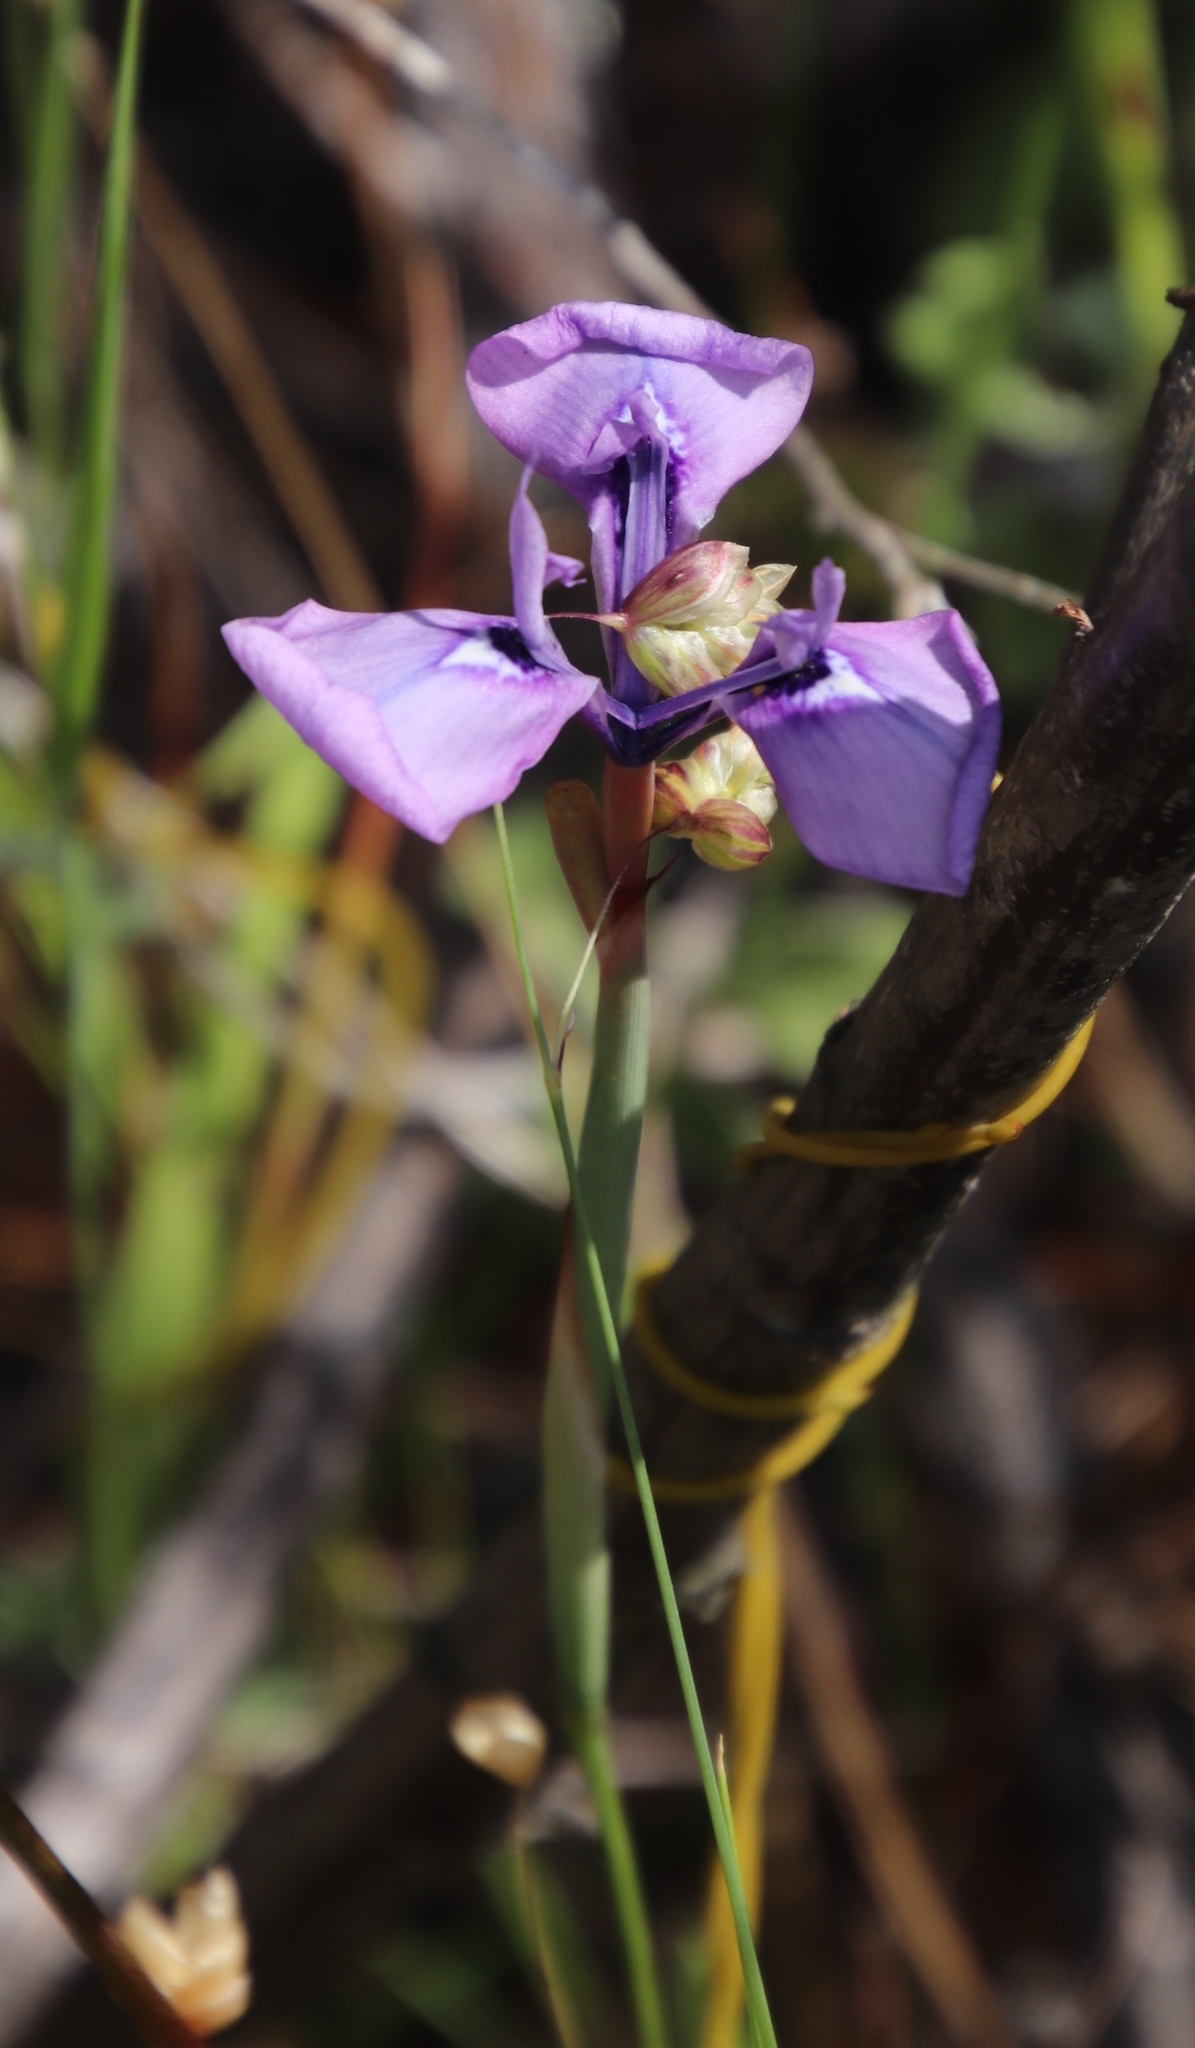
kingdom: Plantae
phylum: Tracheophyta
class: Liliopsida
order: Asparagales
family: Iridaceae
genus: Moraea
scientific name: Moraea tripetala
